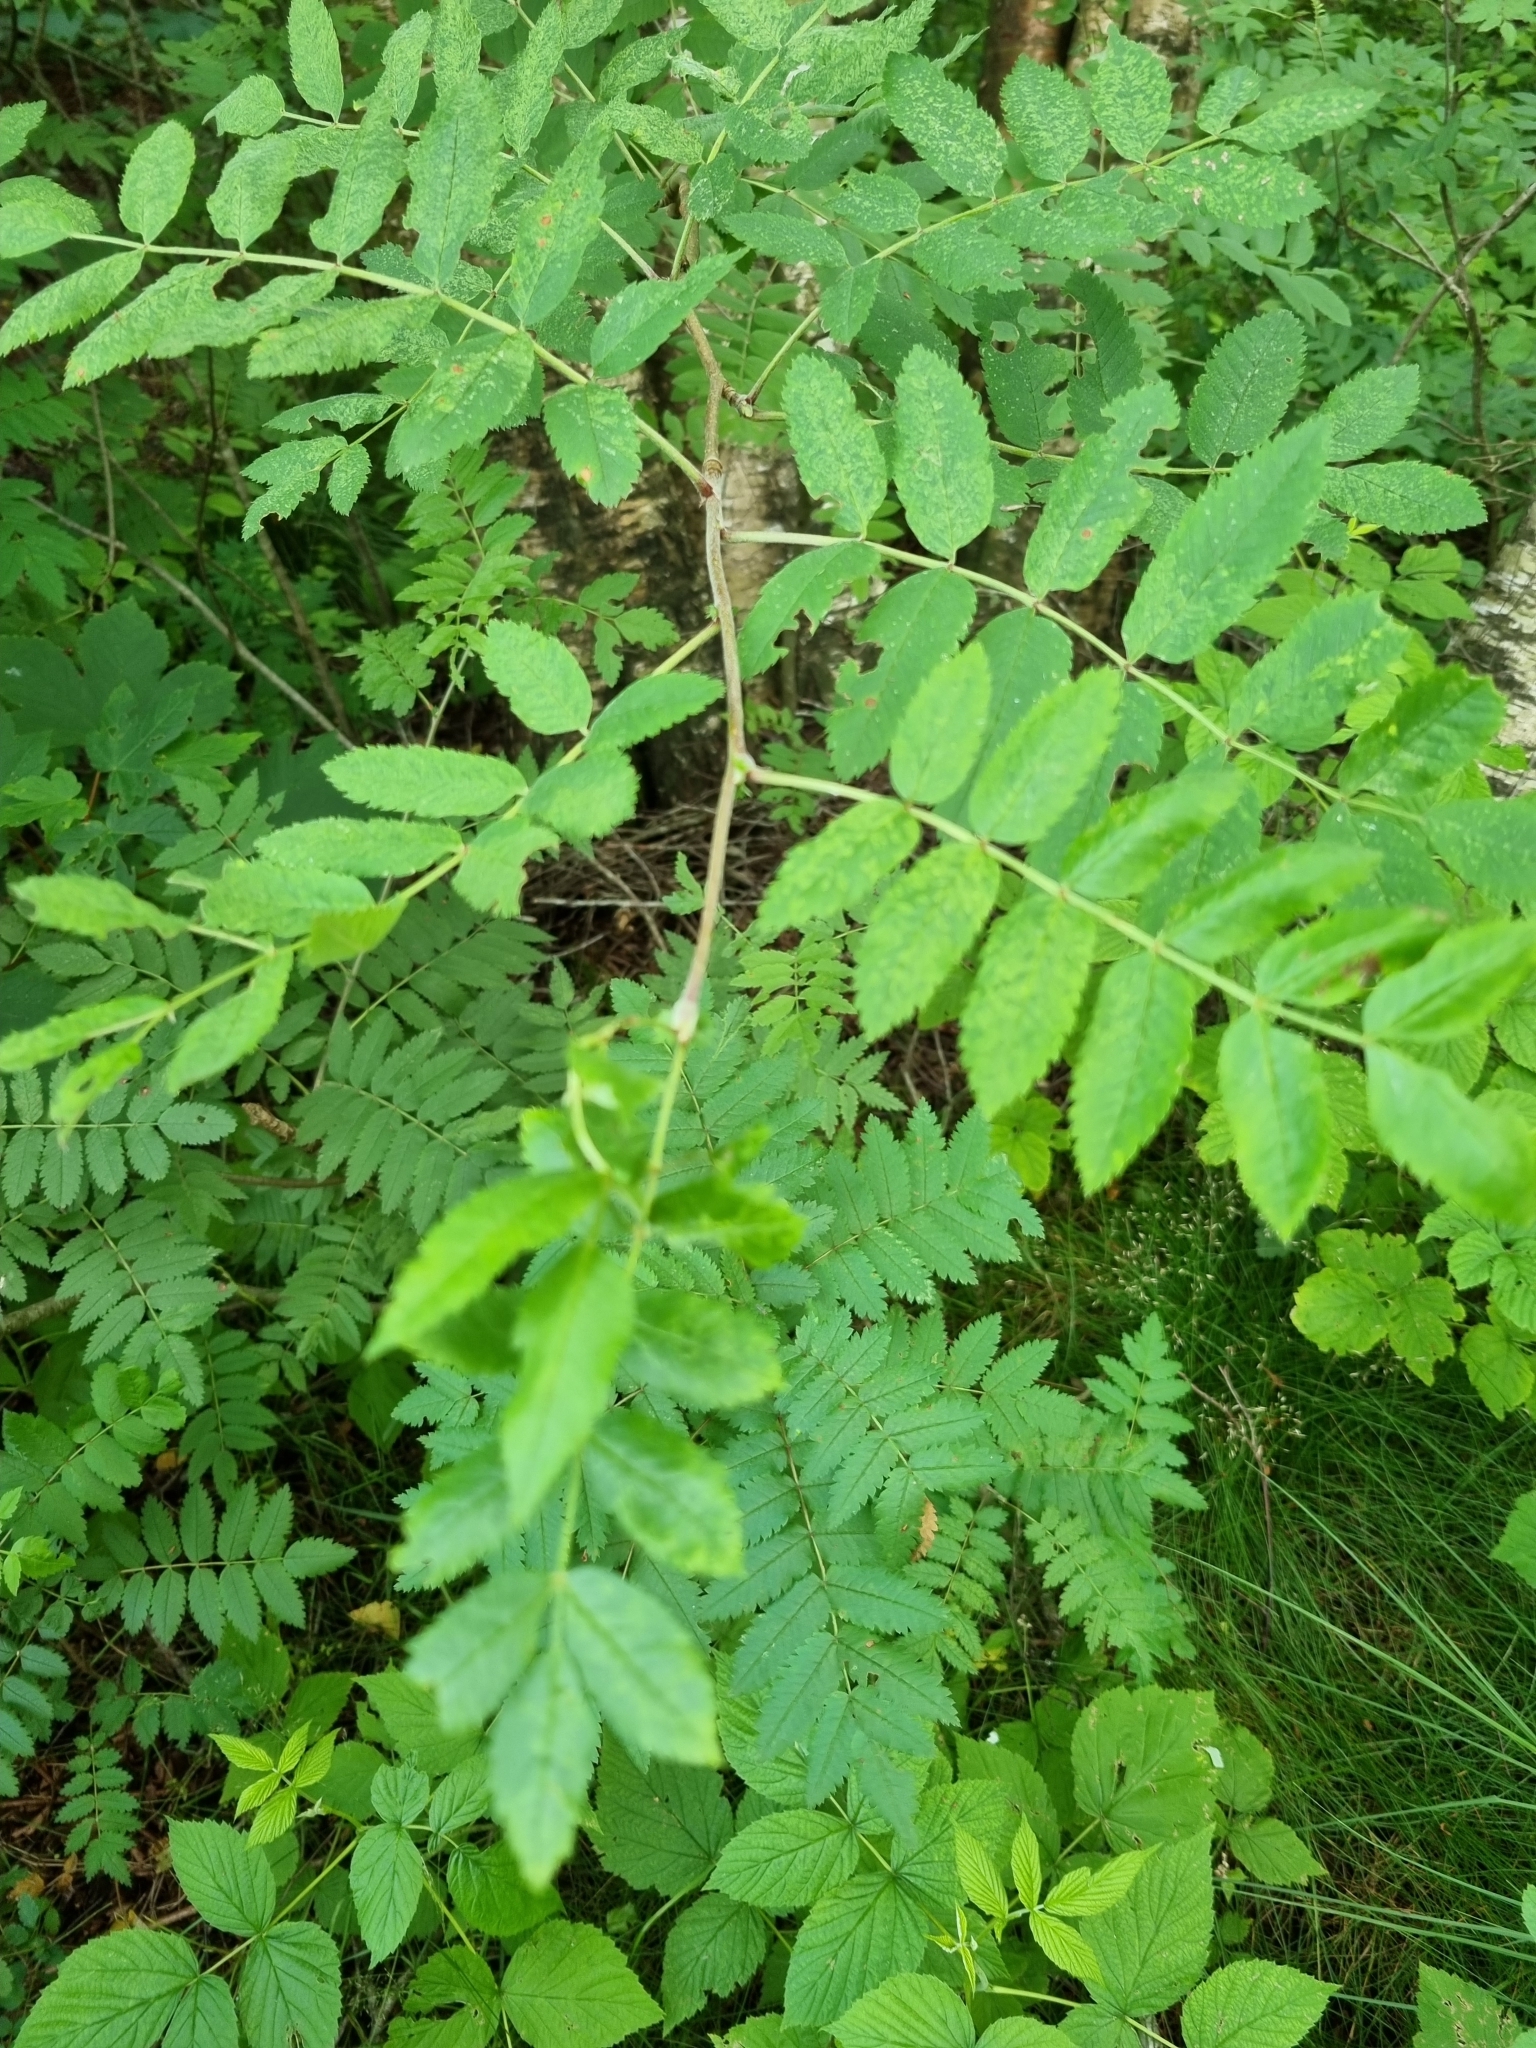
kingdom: Plantae
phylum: Tracheophyta
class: Magnoliopsida
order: Rosales
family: Rosaceae
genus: Sorbus
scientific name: Sorbus aucuparia
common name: Rowan
